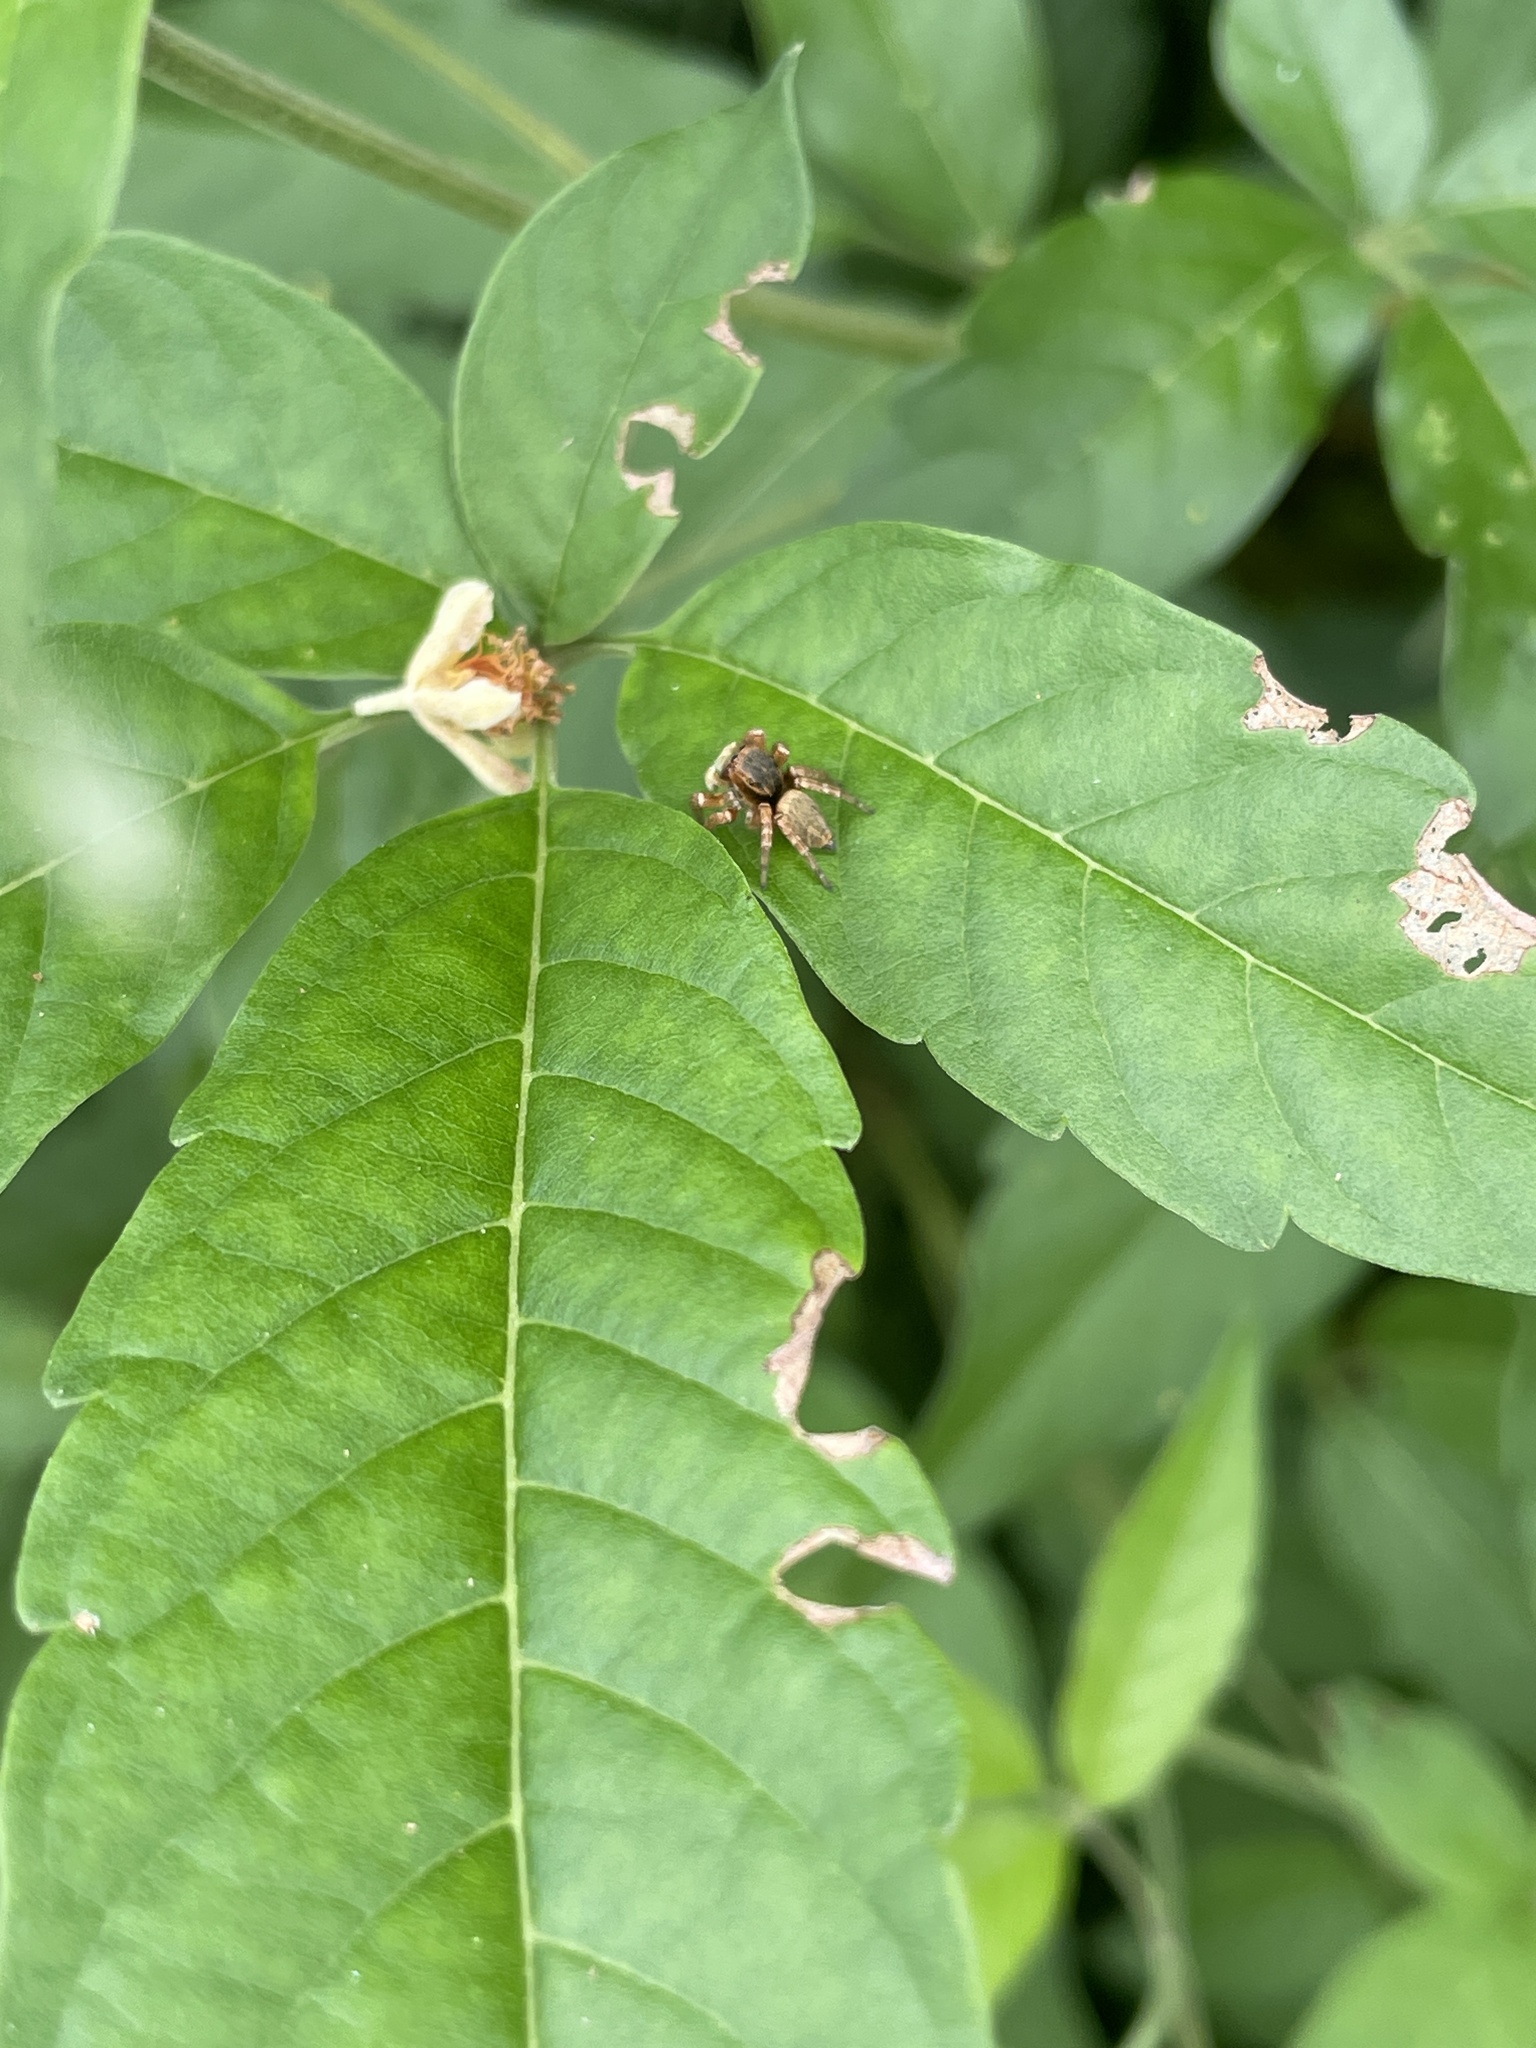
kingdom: Animalia
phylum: Arthropoda
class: Arachnida
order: Araneae
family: Salticidae
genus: Carrhotus
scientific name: Carrhotus sannio
